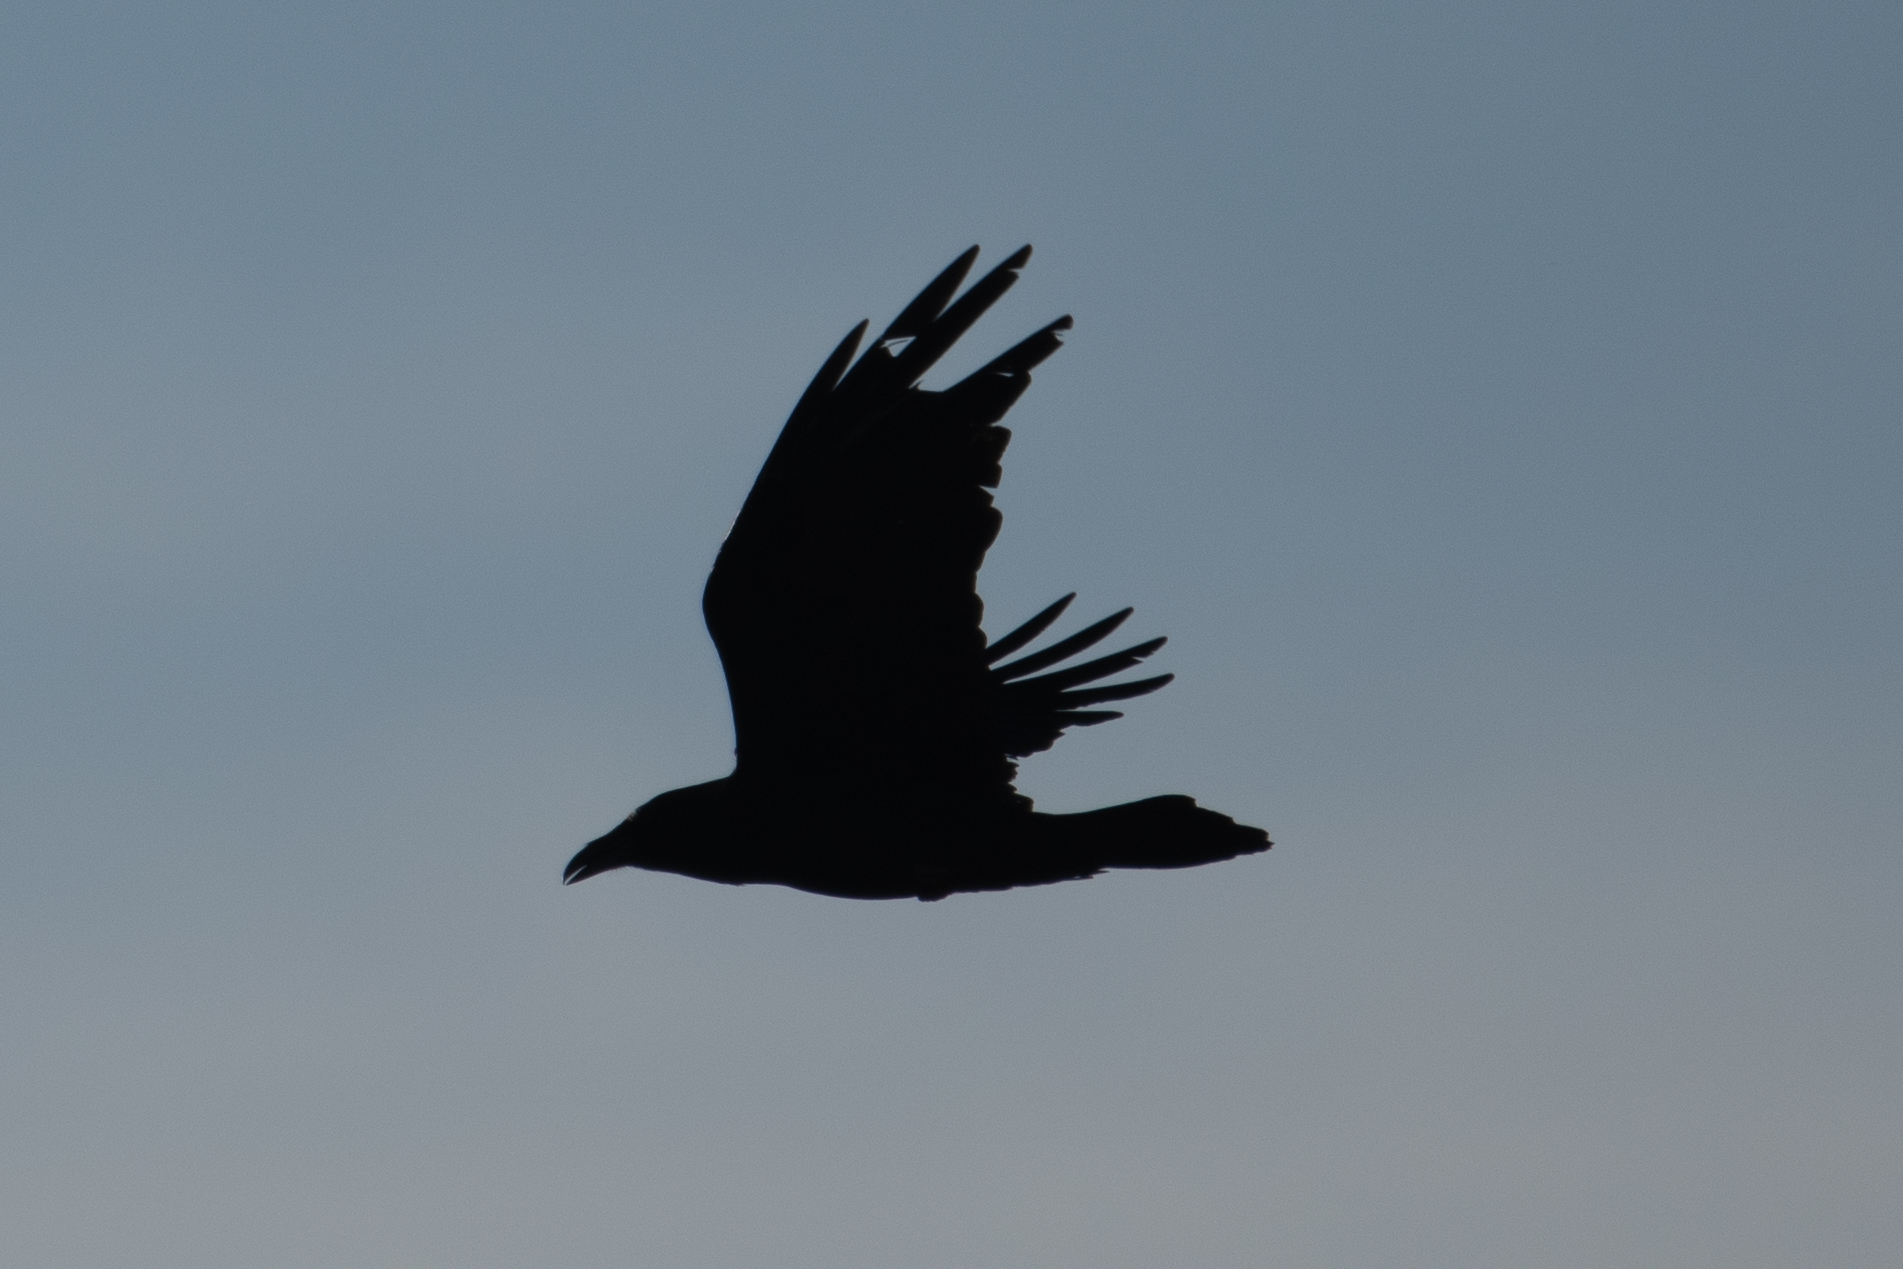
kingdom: Animalia
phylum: Chordata
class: Aves
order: Passeriformes
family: Corvidae
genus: Corvus
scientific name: Corvus corax
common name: Common raven
